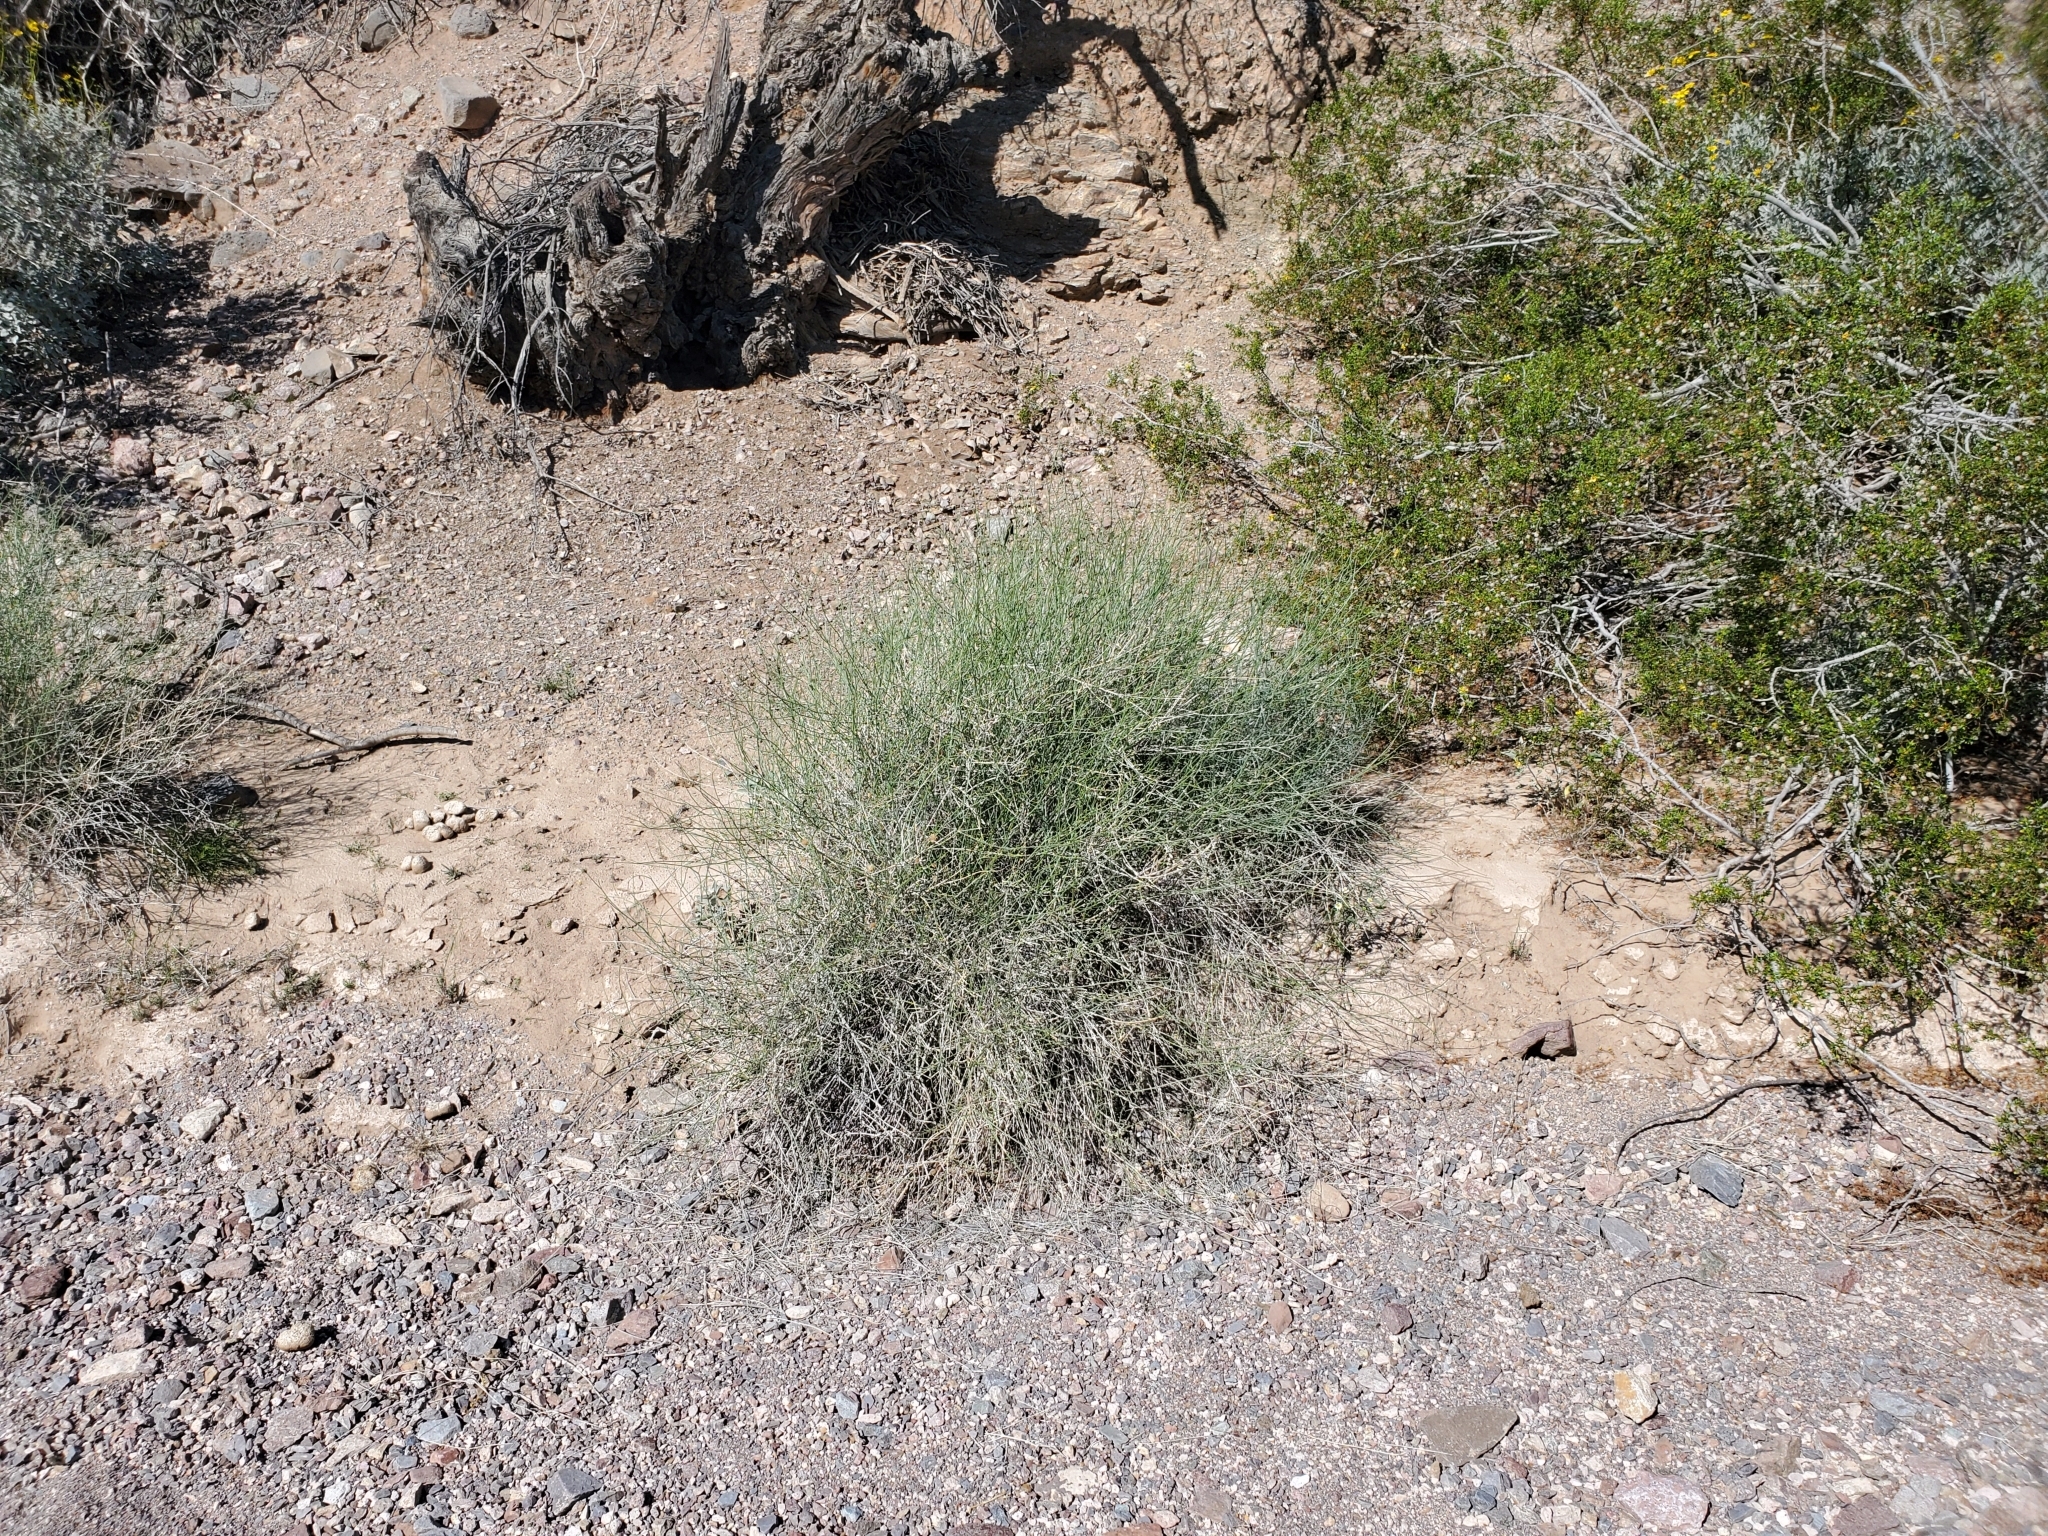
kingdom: Plantae
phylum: Tracheophyta
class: Magnoliopsida
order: Asterales
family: Asteraceae
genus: Bebbia
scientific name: Bebbia juncea
